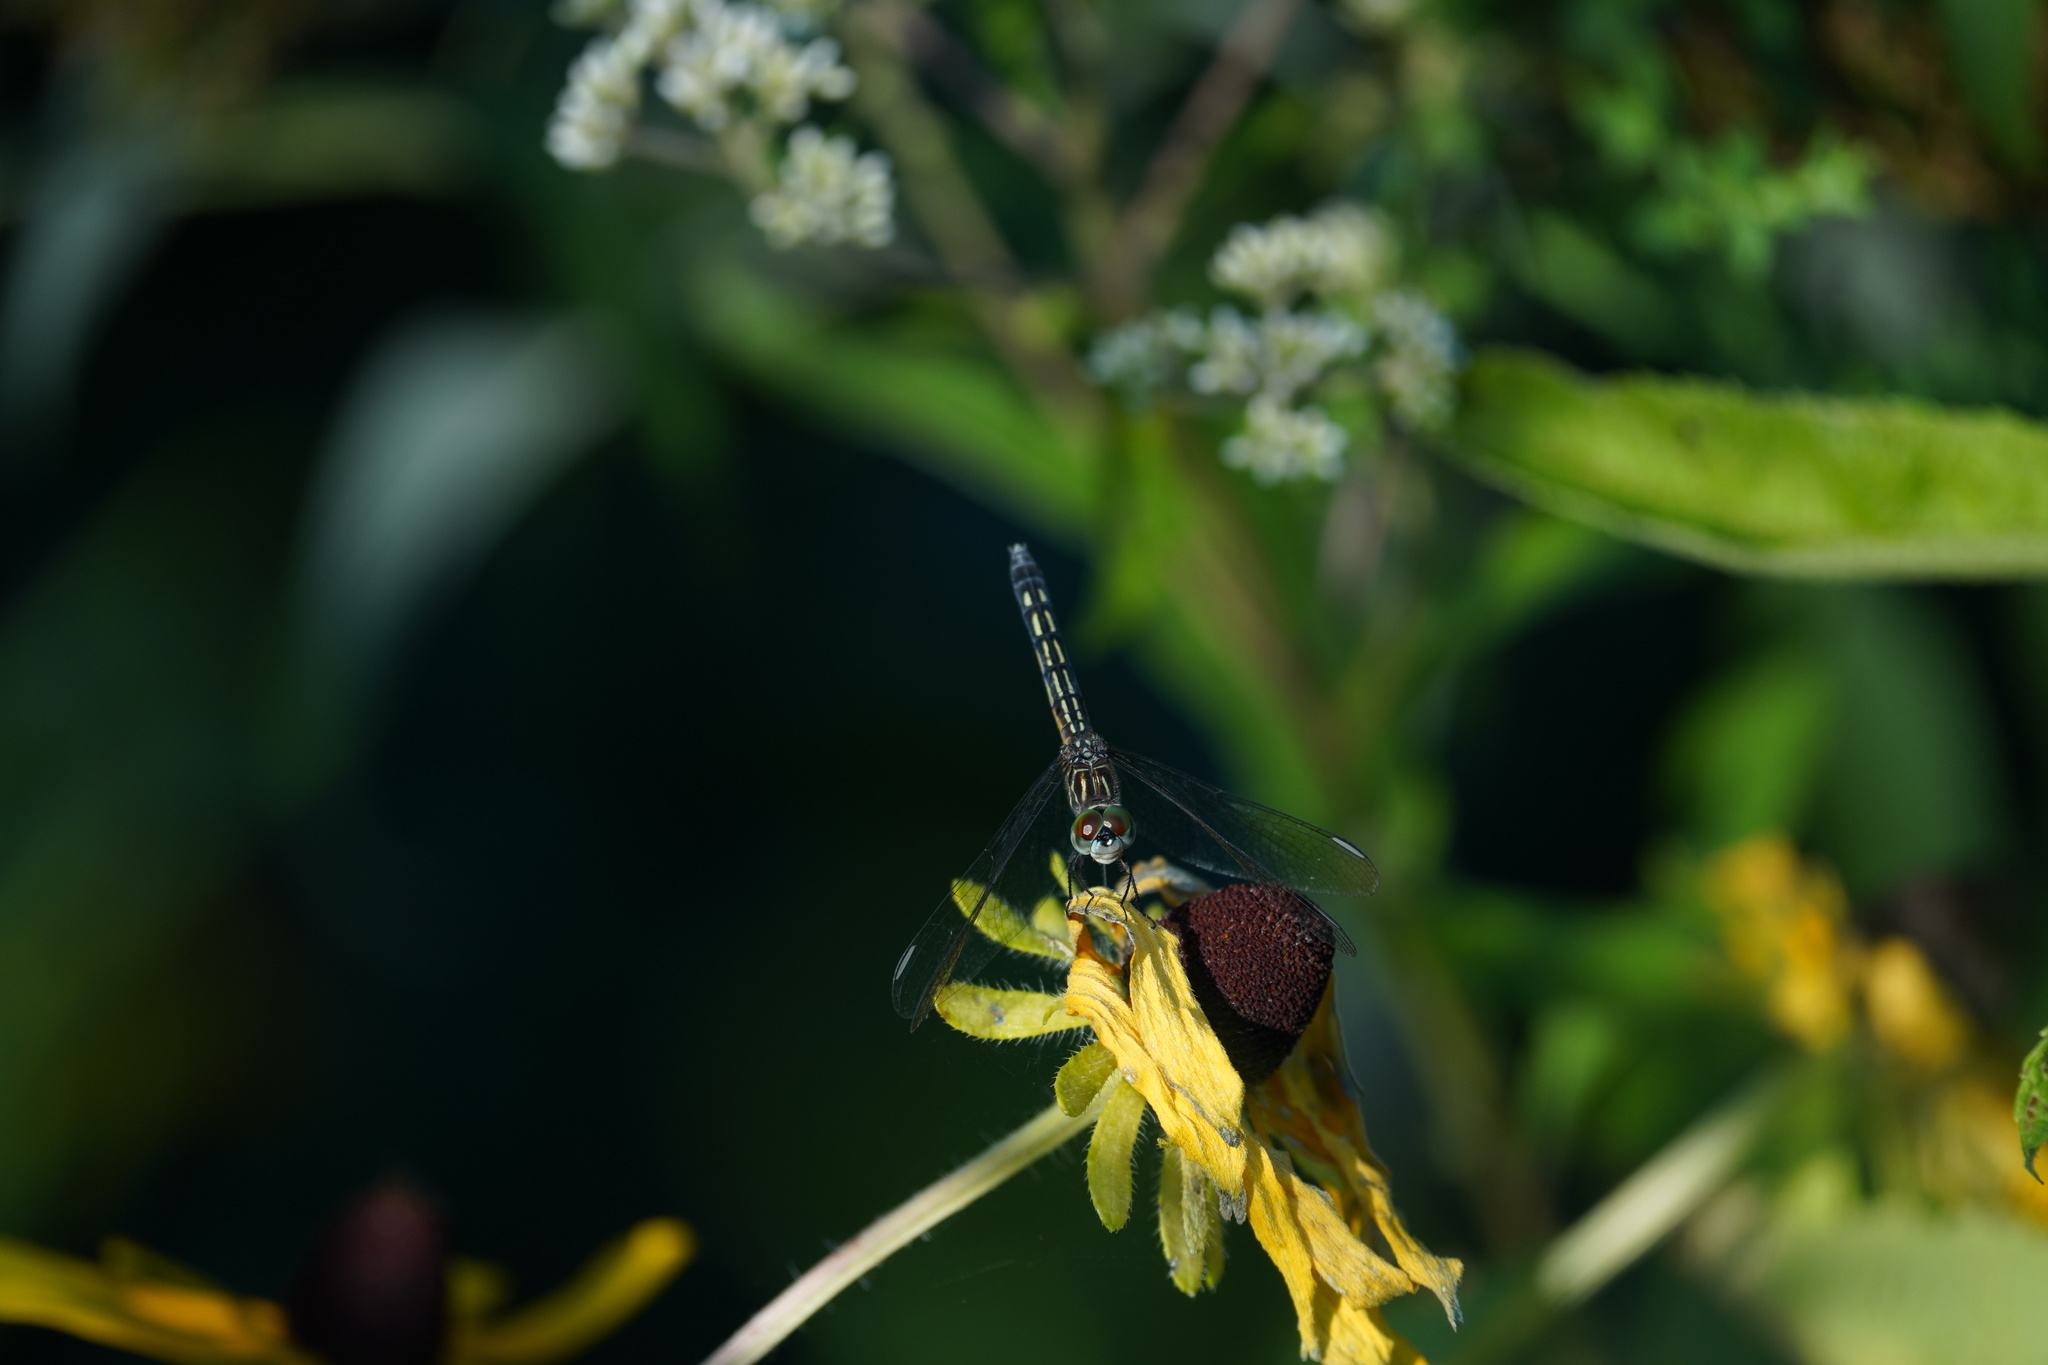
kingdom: Animalia
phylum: Arthropoda
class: Insecta
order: Odonata
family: Libellulidae
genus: Pachydiplax
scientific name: Pachydiplax longipennis
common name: Blue dasher
